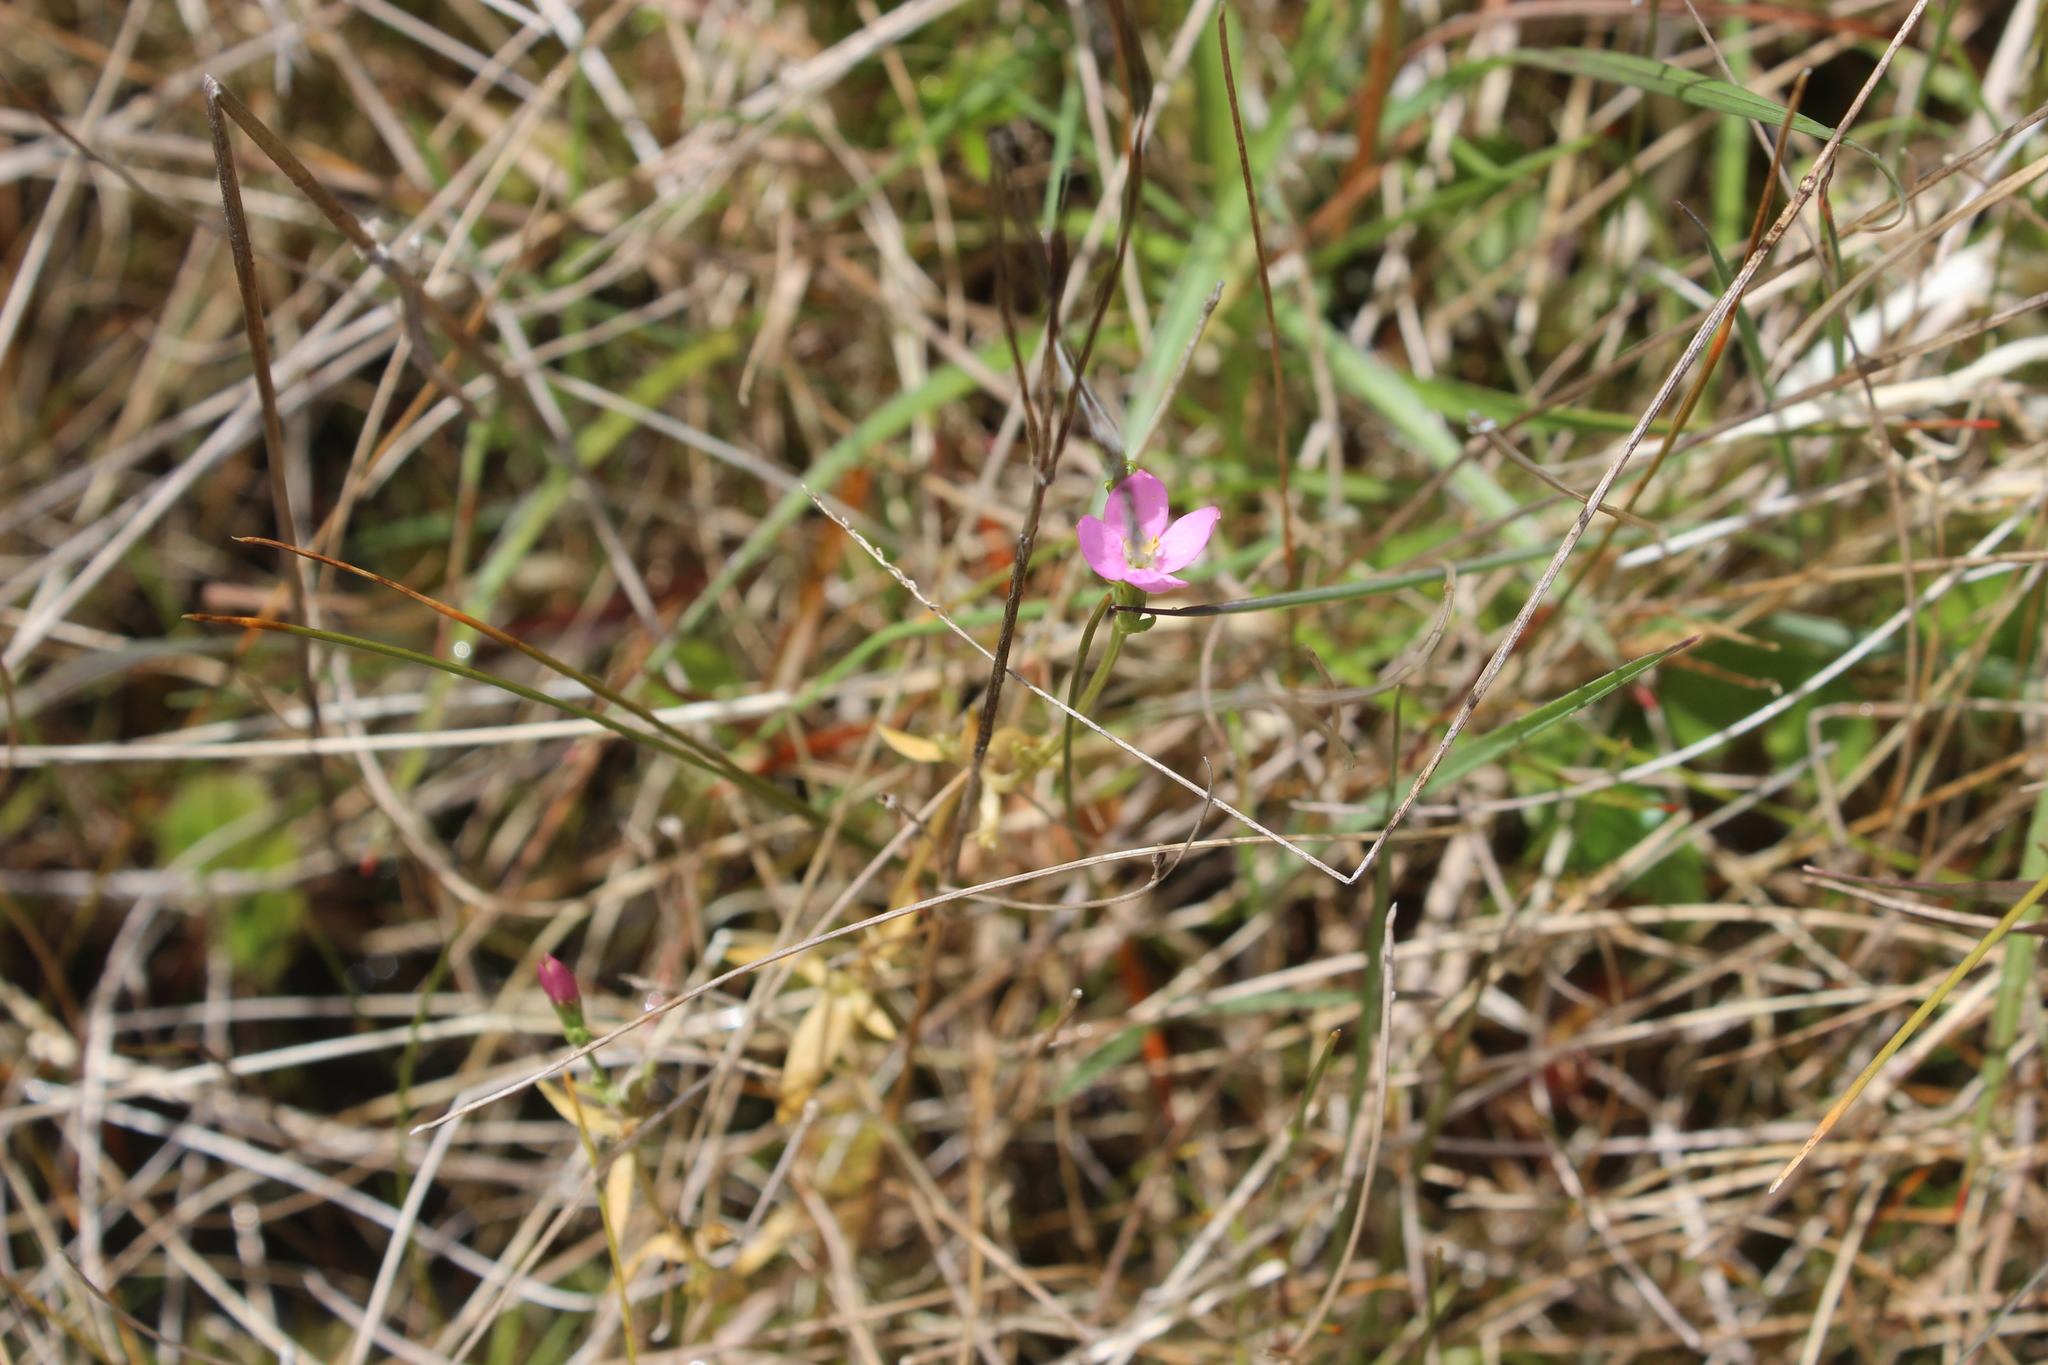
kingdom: Plantae
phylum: Tracheophyta
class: Magnoliopsida
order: Gentianales
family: Gentianaceae
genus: Centaurium
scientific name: Centaurium erythraea
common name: Common centaury
